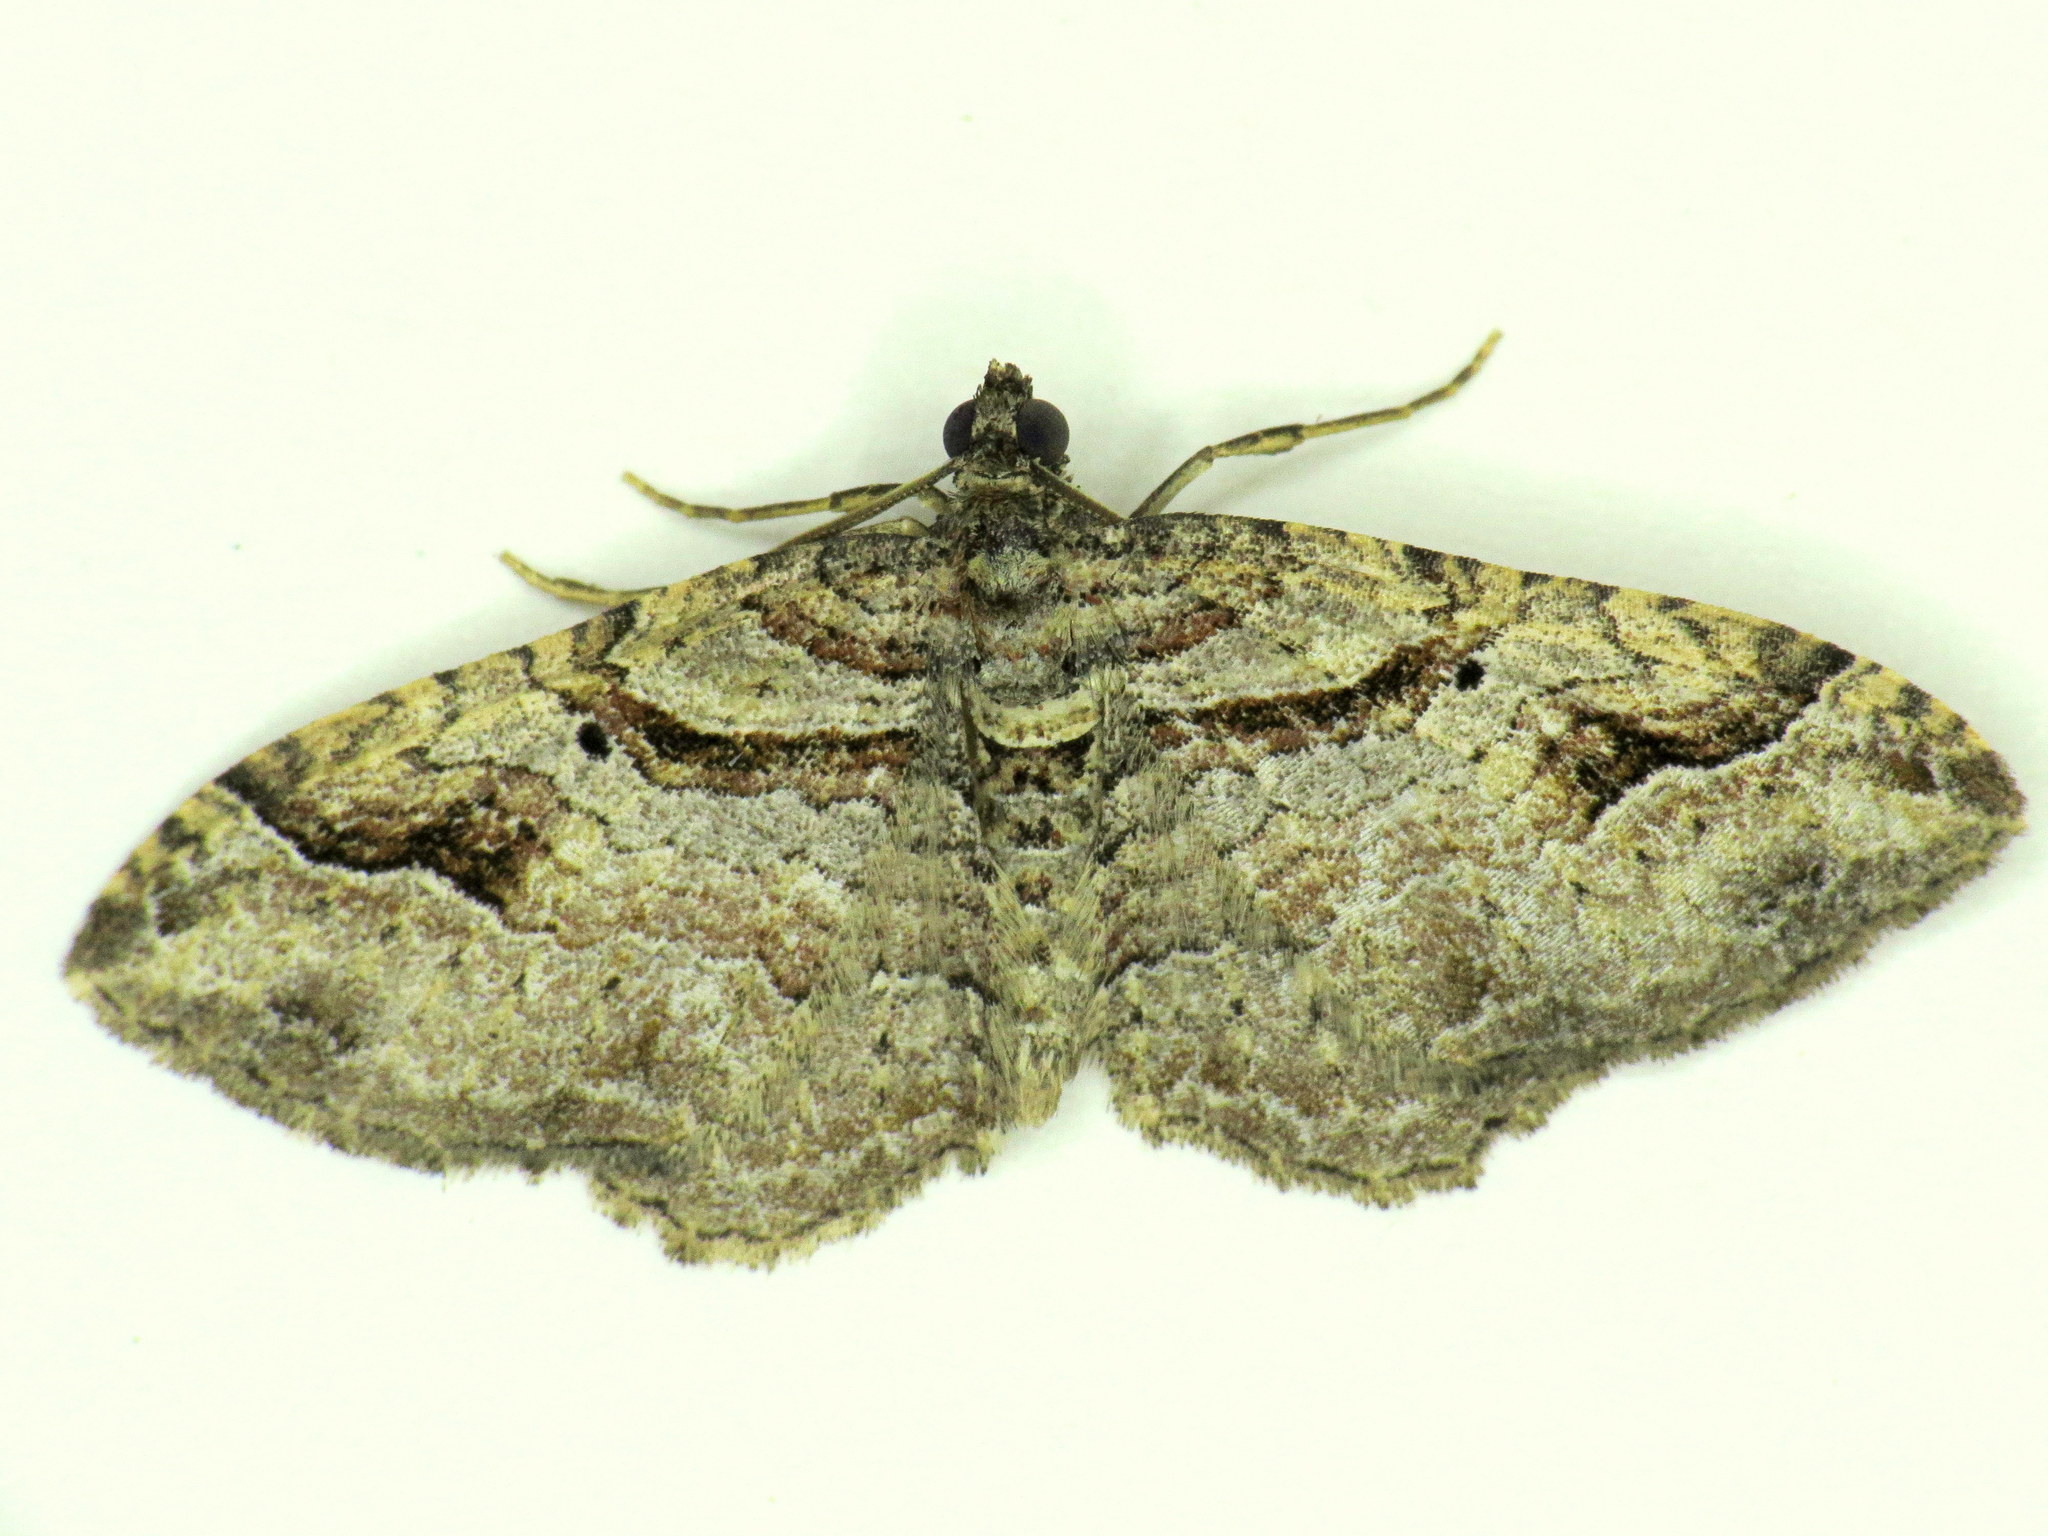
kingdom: Animalia
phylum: Arthropoda
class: Insecta
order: Lepidoptera
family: Geometridae
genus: Costaconvexa
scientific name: Costaconvexa centrostrigaria
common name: Bent-line carpet
